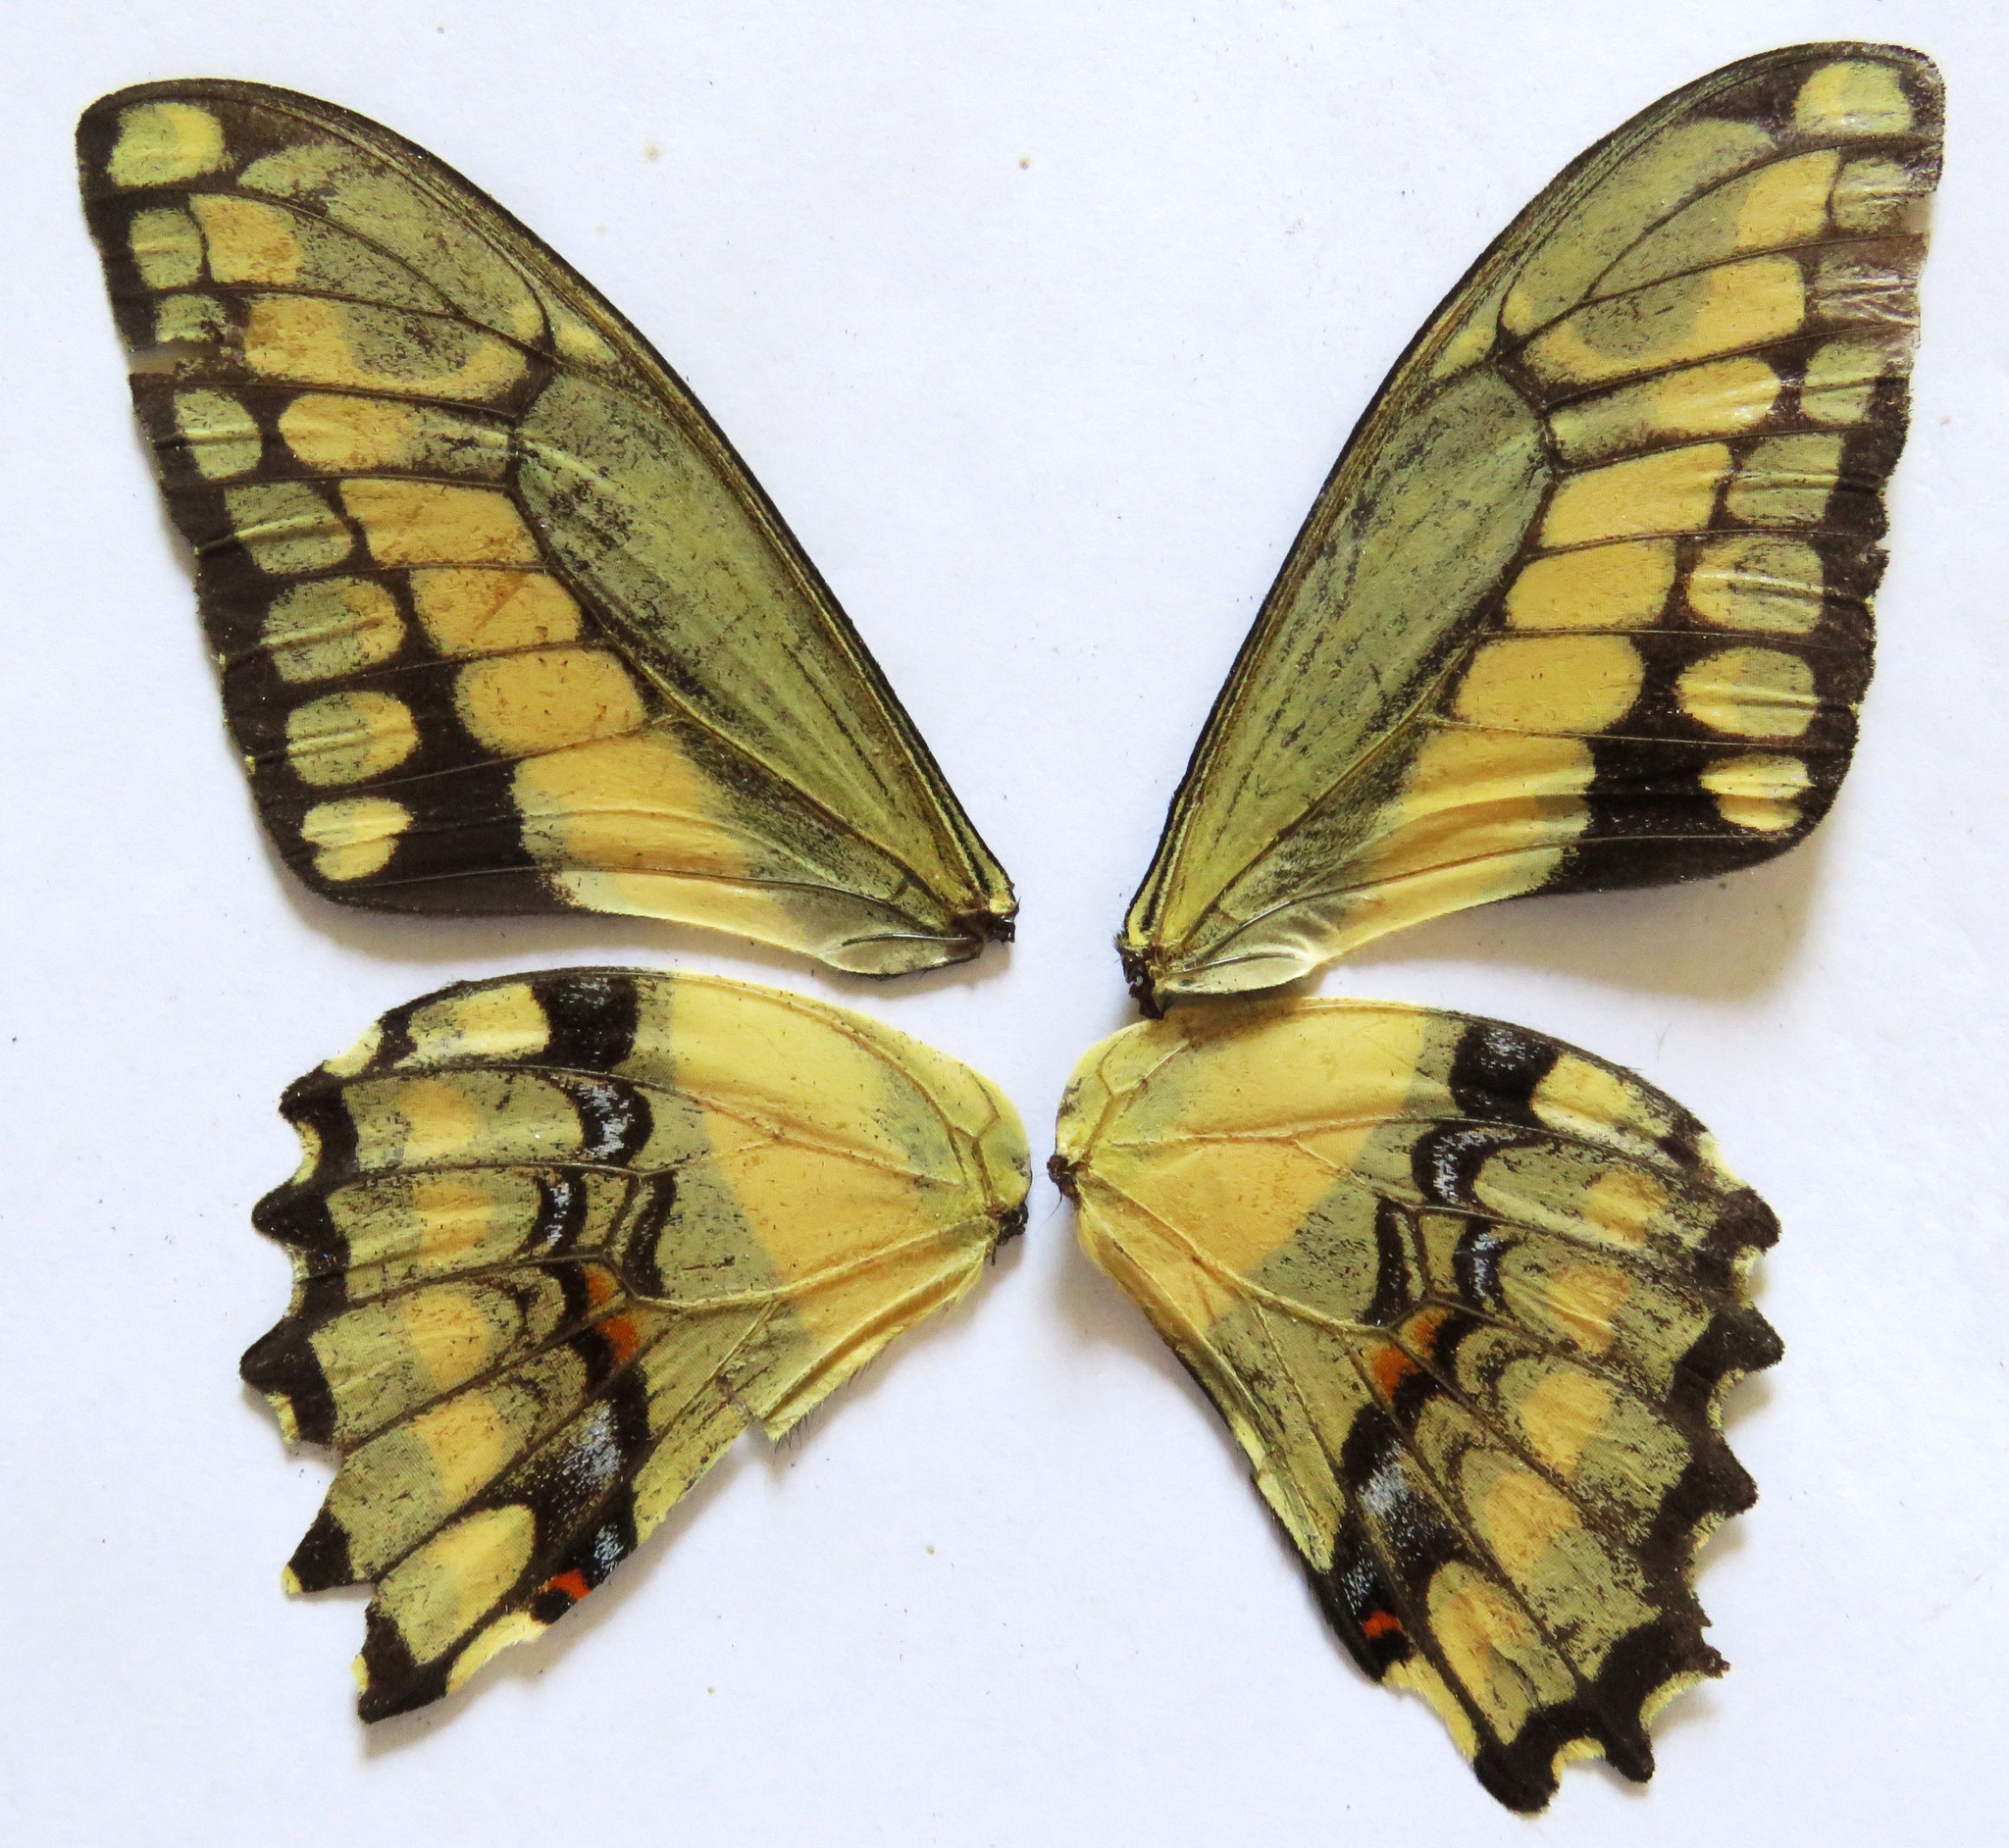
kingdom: Animalia
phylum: Arthropoda
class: Insecta
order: Lepidoptera
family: Papilionidae
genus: Papilio
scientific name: Papilio thoas
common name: King swallowtail
